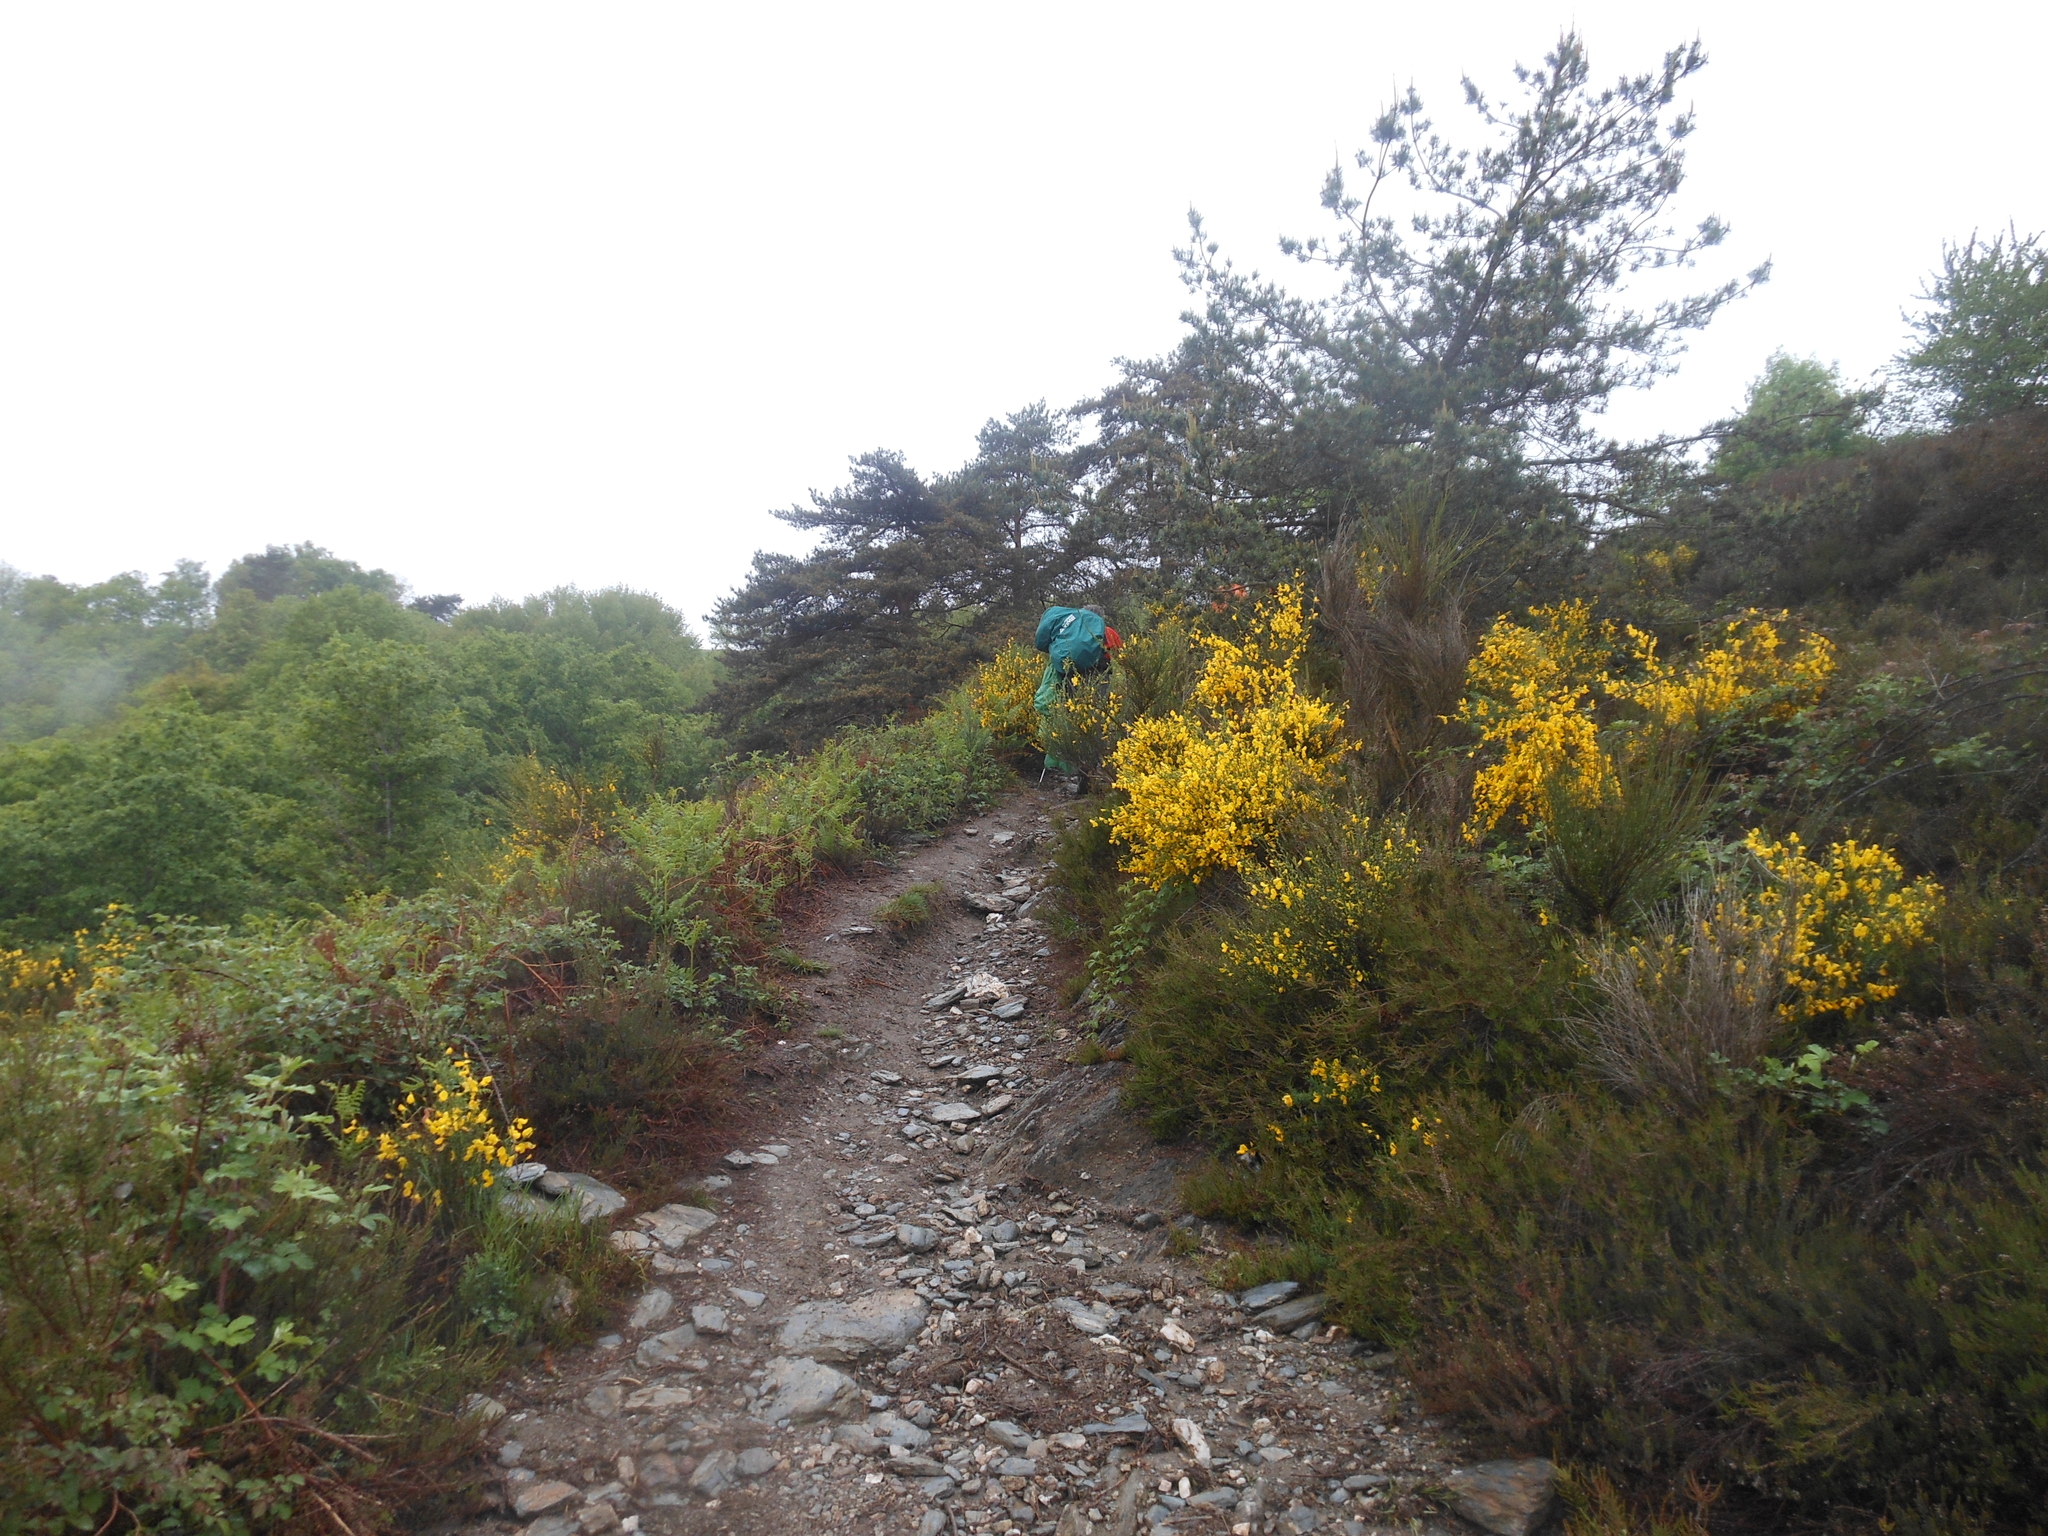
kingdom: Plantae
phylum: Tracheophyta
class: Magnoliopsida
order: Fabales
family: Fabaceae
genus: Cytisus
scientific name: Cytisus scoparius
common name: Scotch broom
